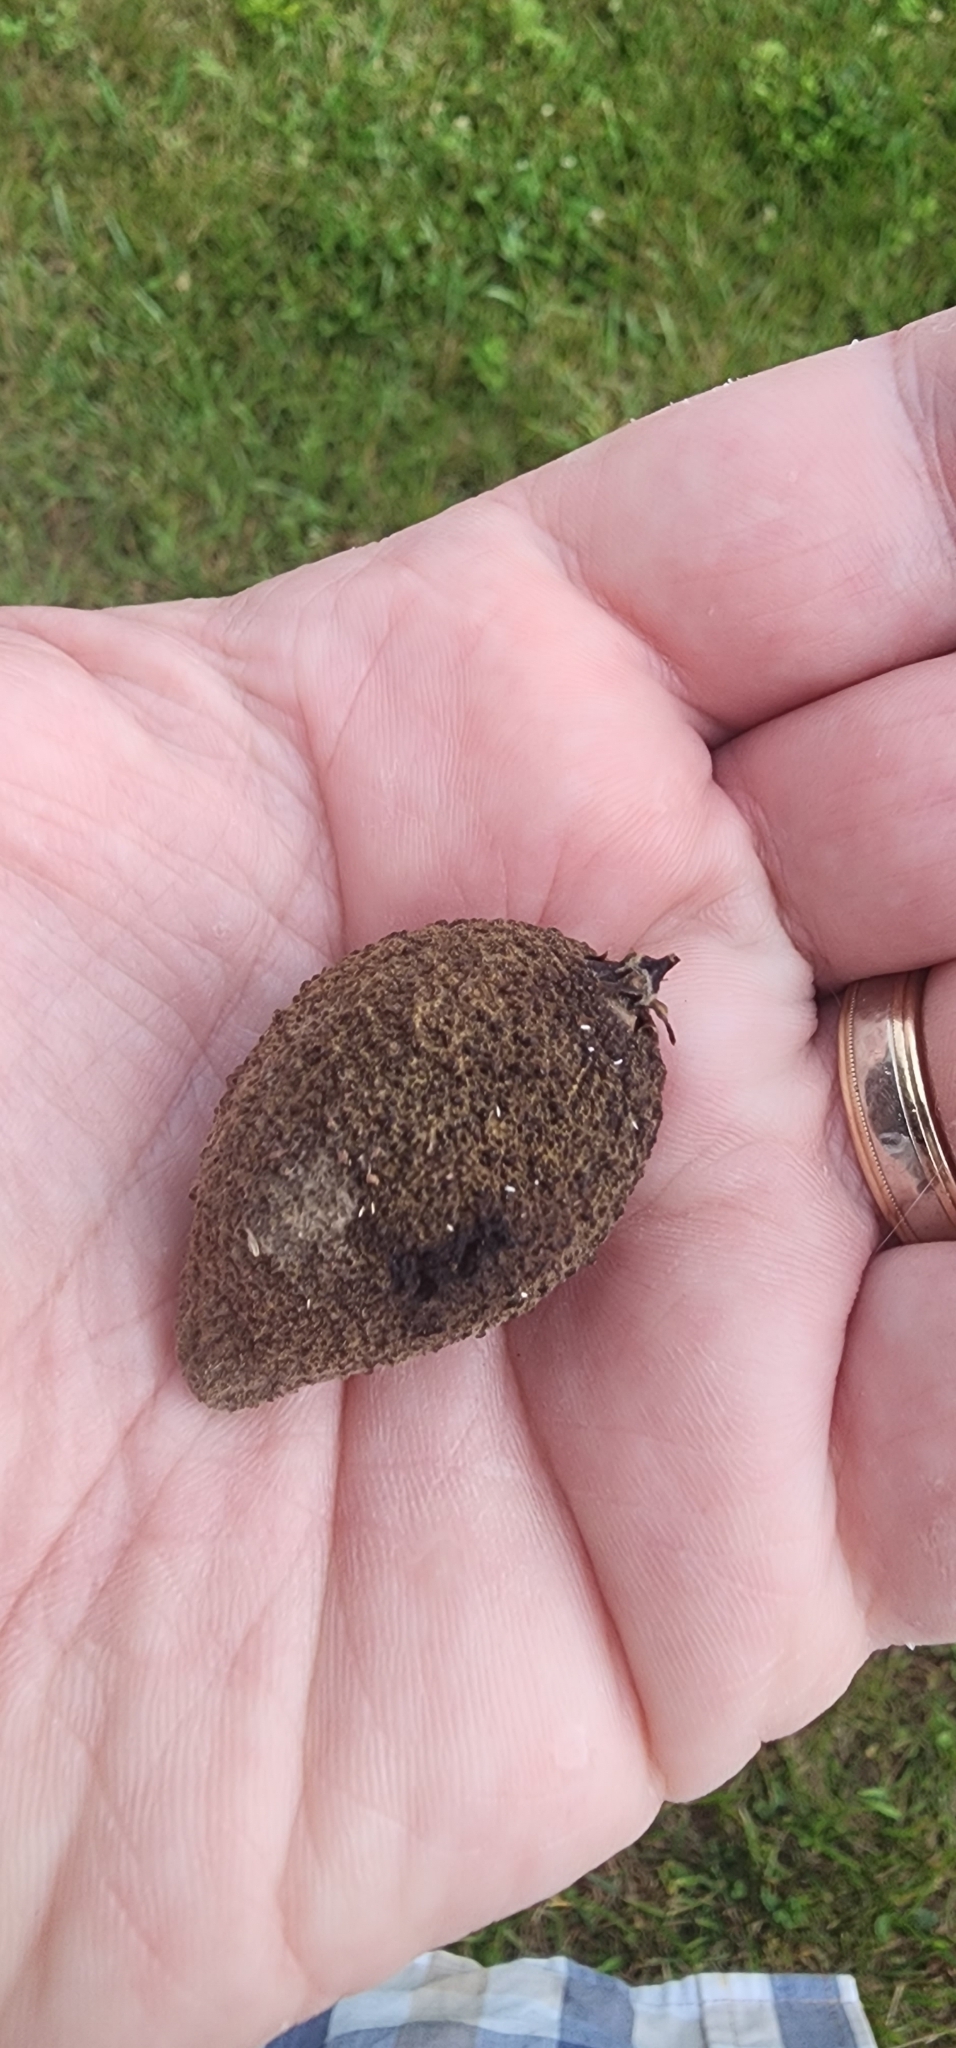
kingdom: Plantae
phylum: Tracheophyta
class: Magnoliopsida
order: Fagales
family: Juglandaceae
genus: Juglans
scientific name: Juglans cinerea
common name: Butternut
